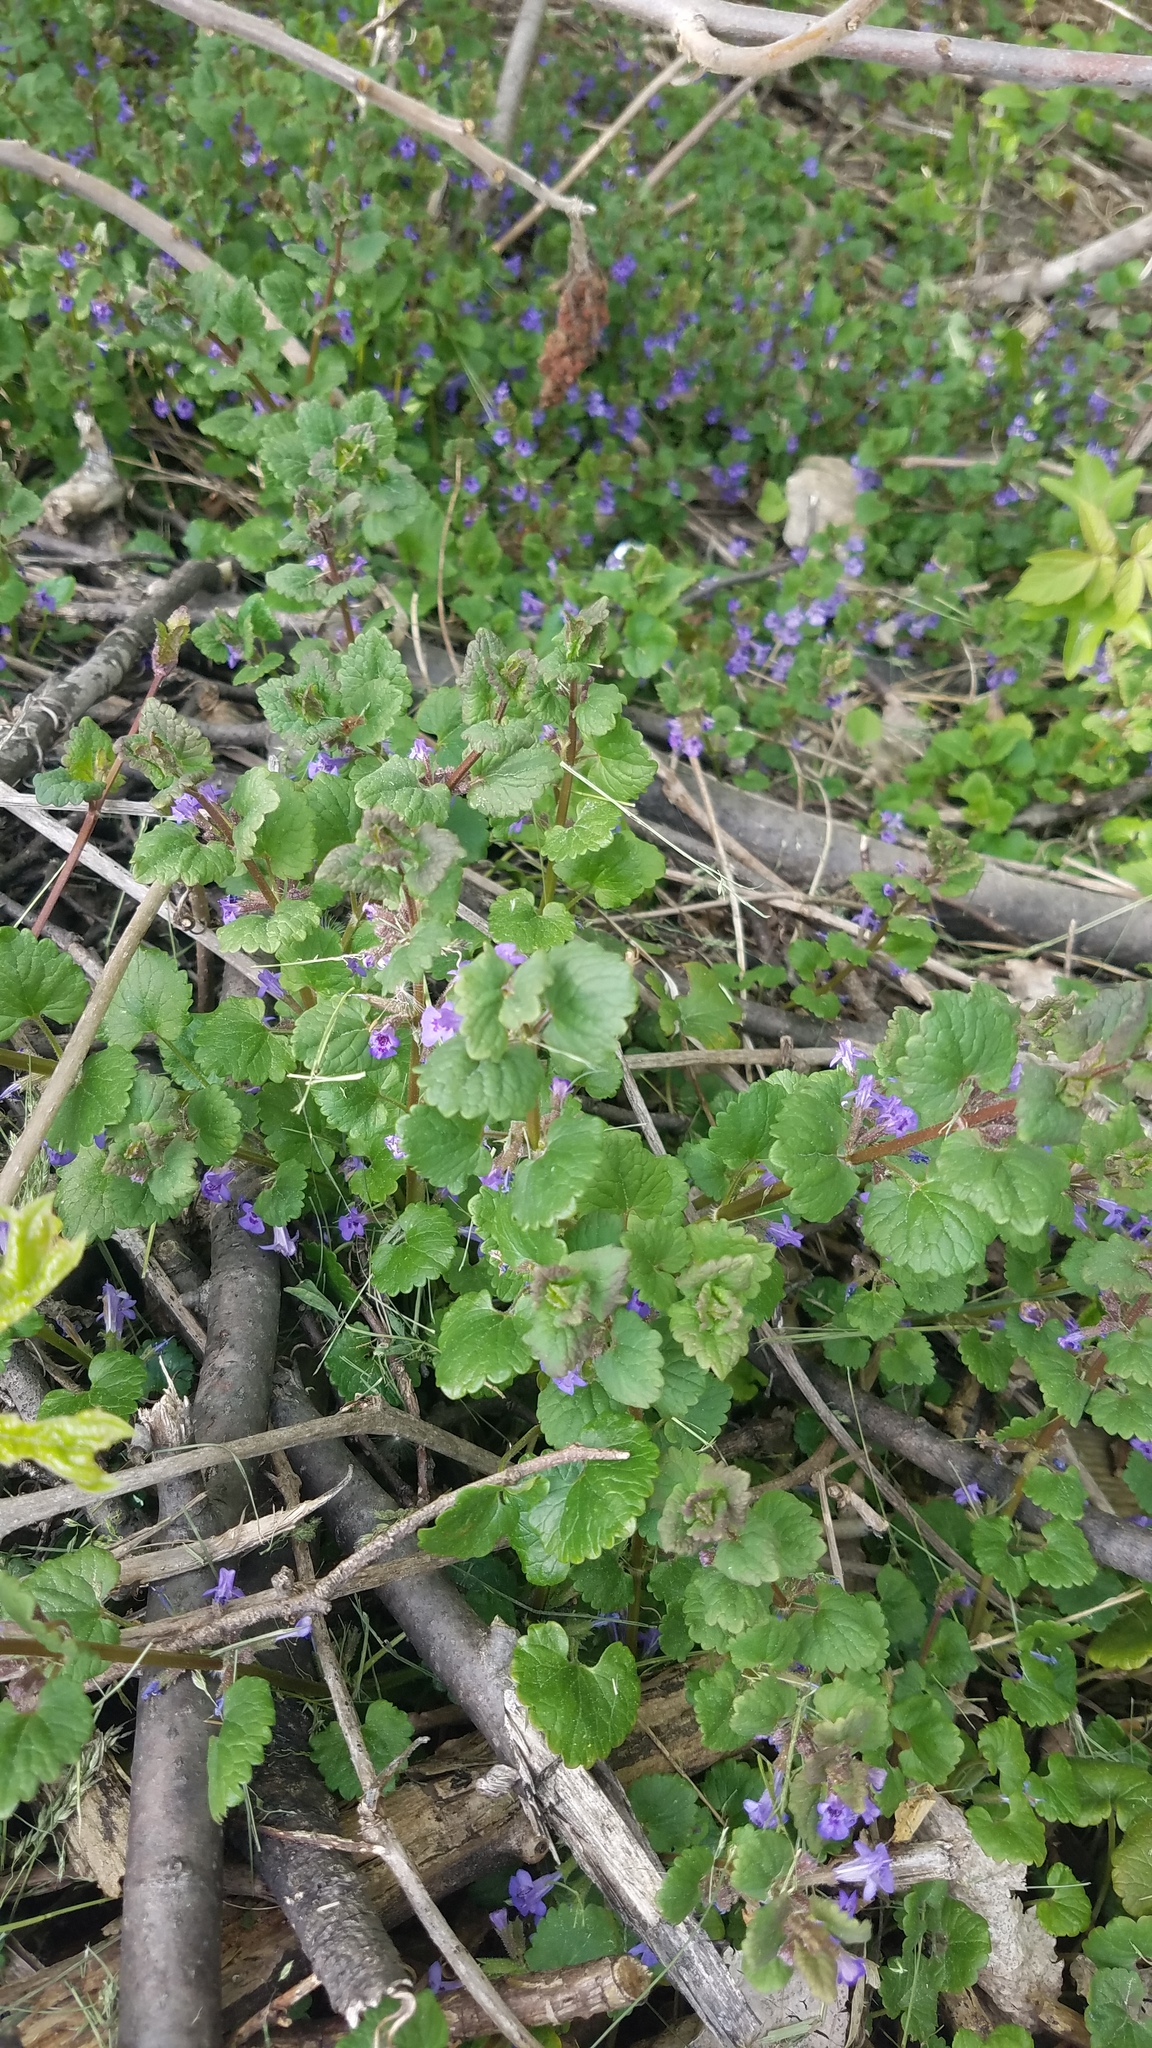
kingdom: Plantae
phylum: Tracheophyta
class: Magnoliopsida
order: Lamiales
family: Lamiaceae
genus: Glechoma
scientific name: Glechoma hederacea
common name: Ground ivy
